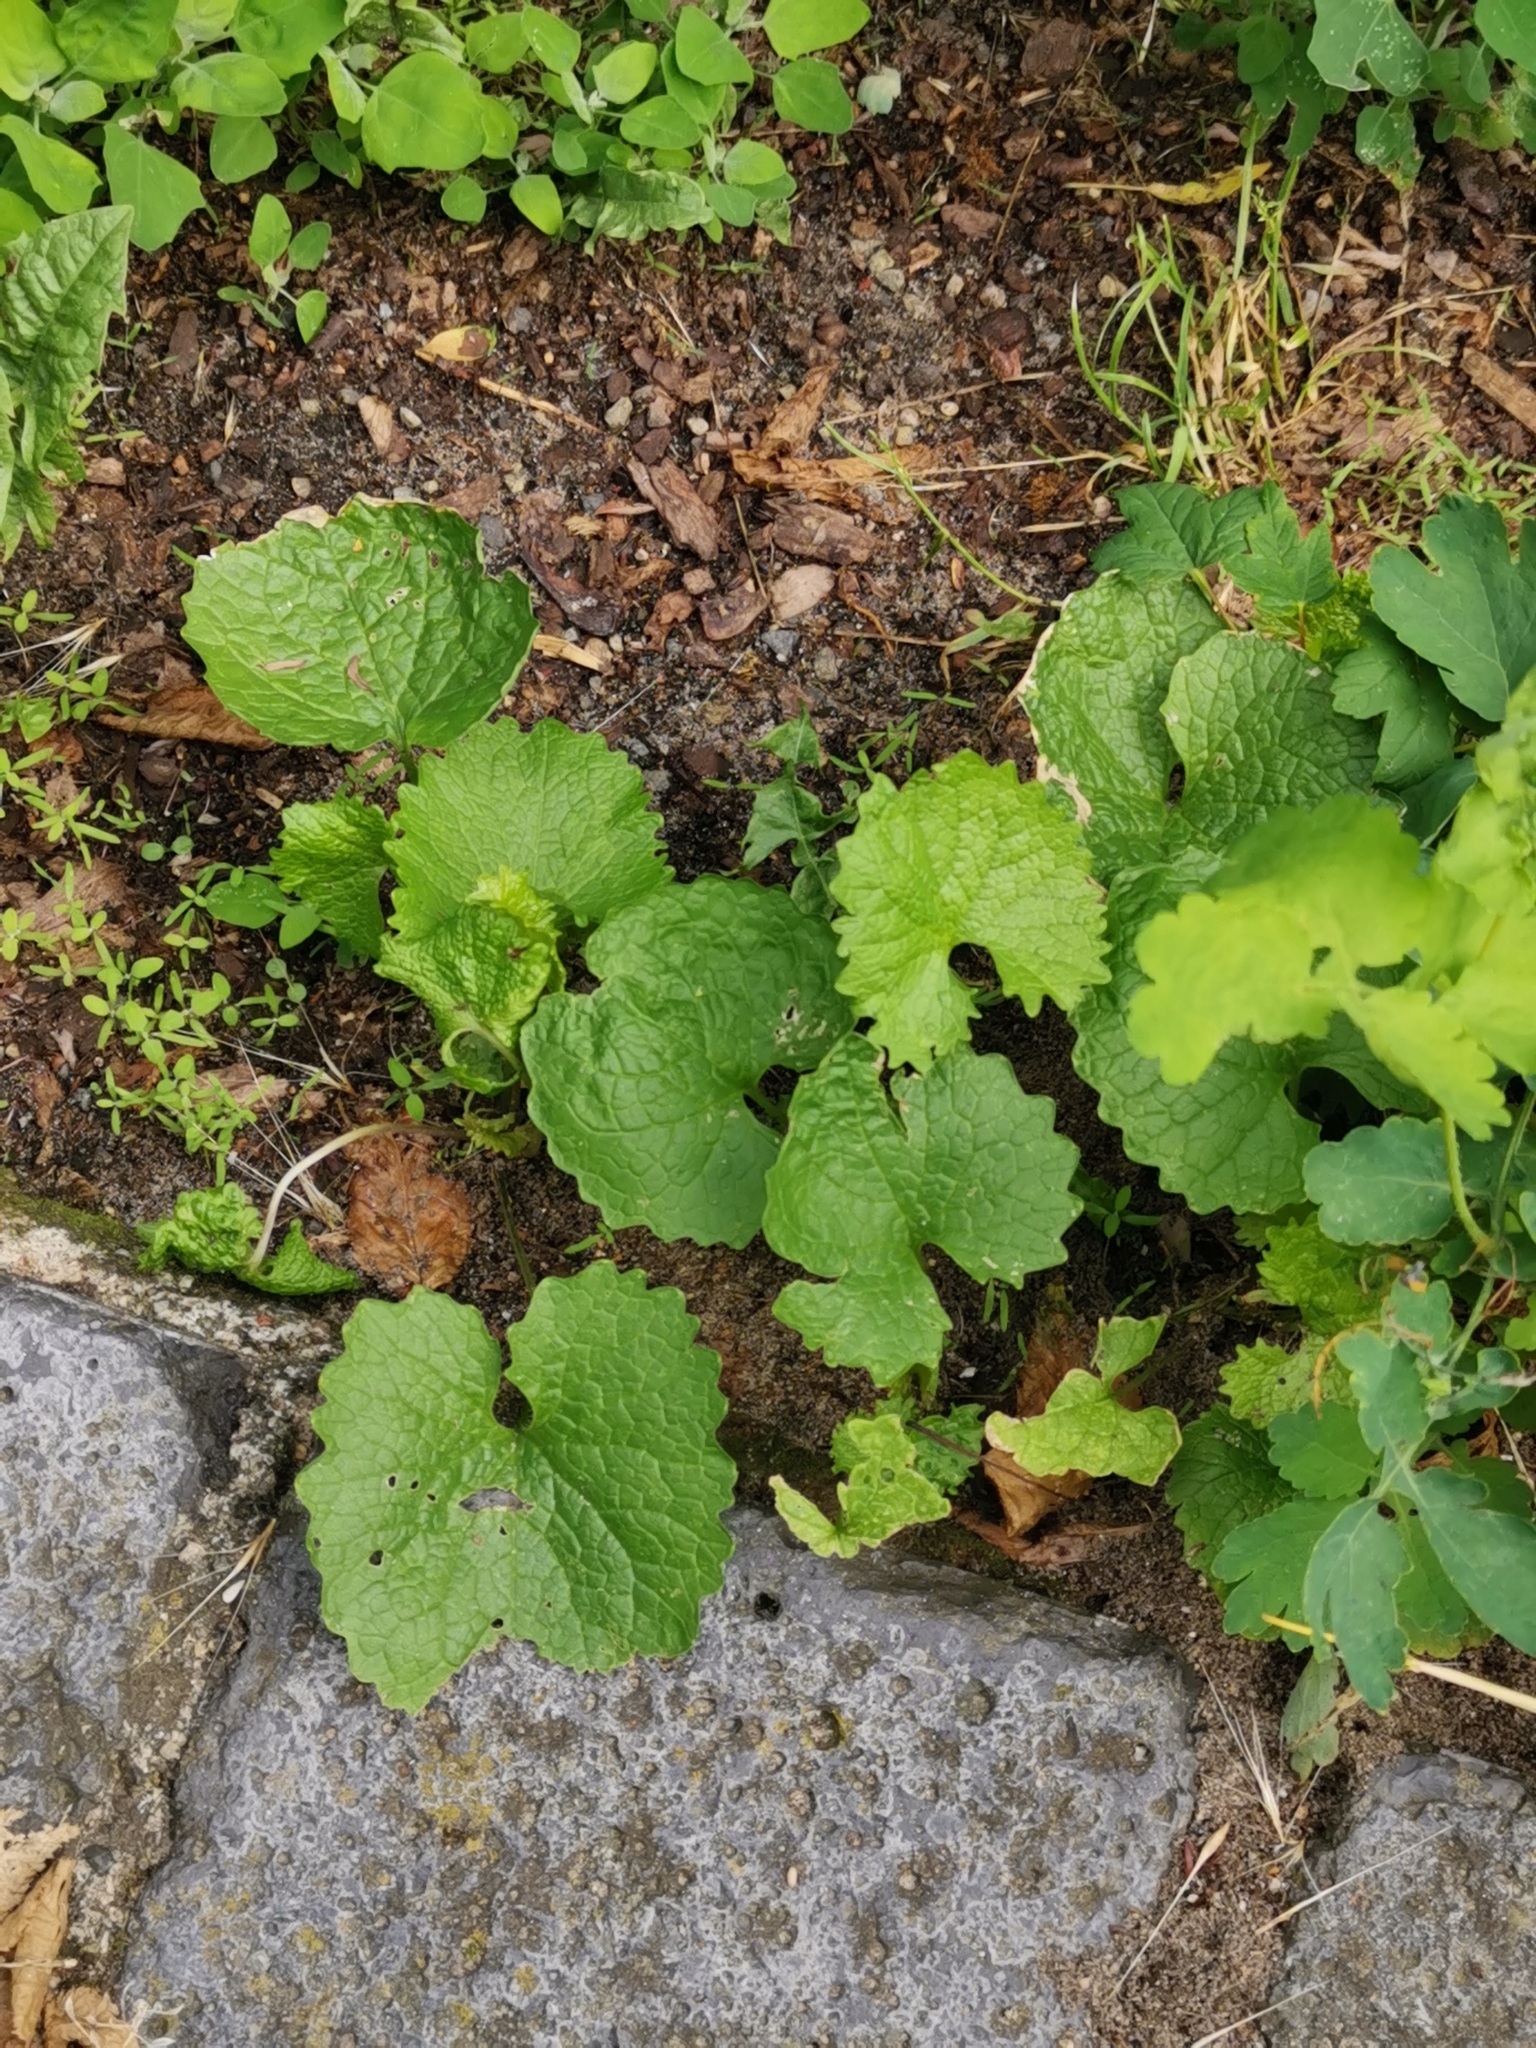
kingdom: Plantae
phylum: Tracheophyta
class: Magnoliopsida
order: Brassicales
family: Brassicaceae
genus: Alliaria
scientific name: Alliaria petiolata
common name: Garlic mustard
